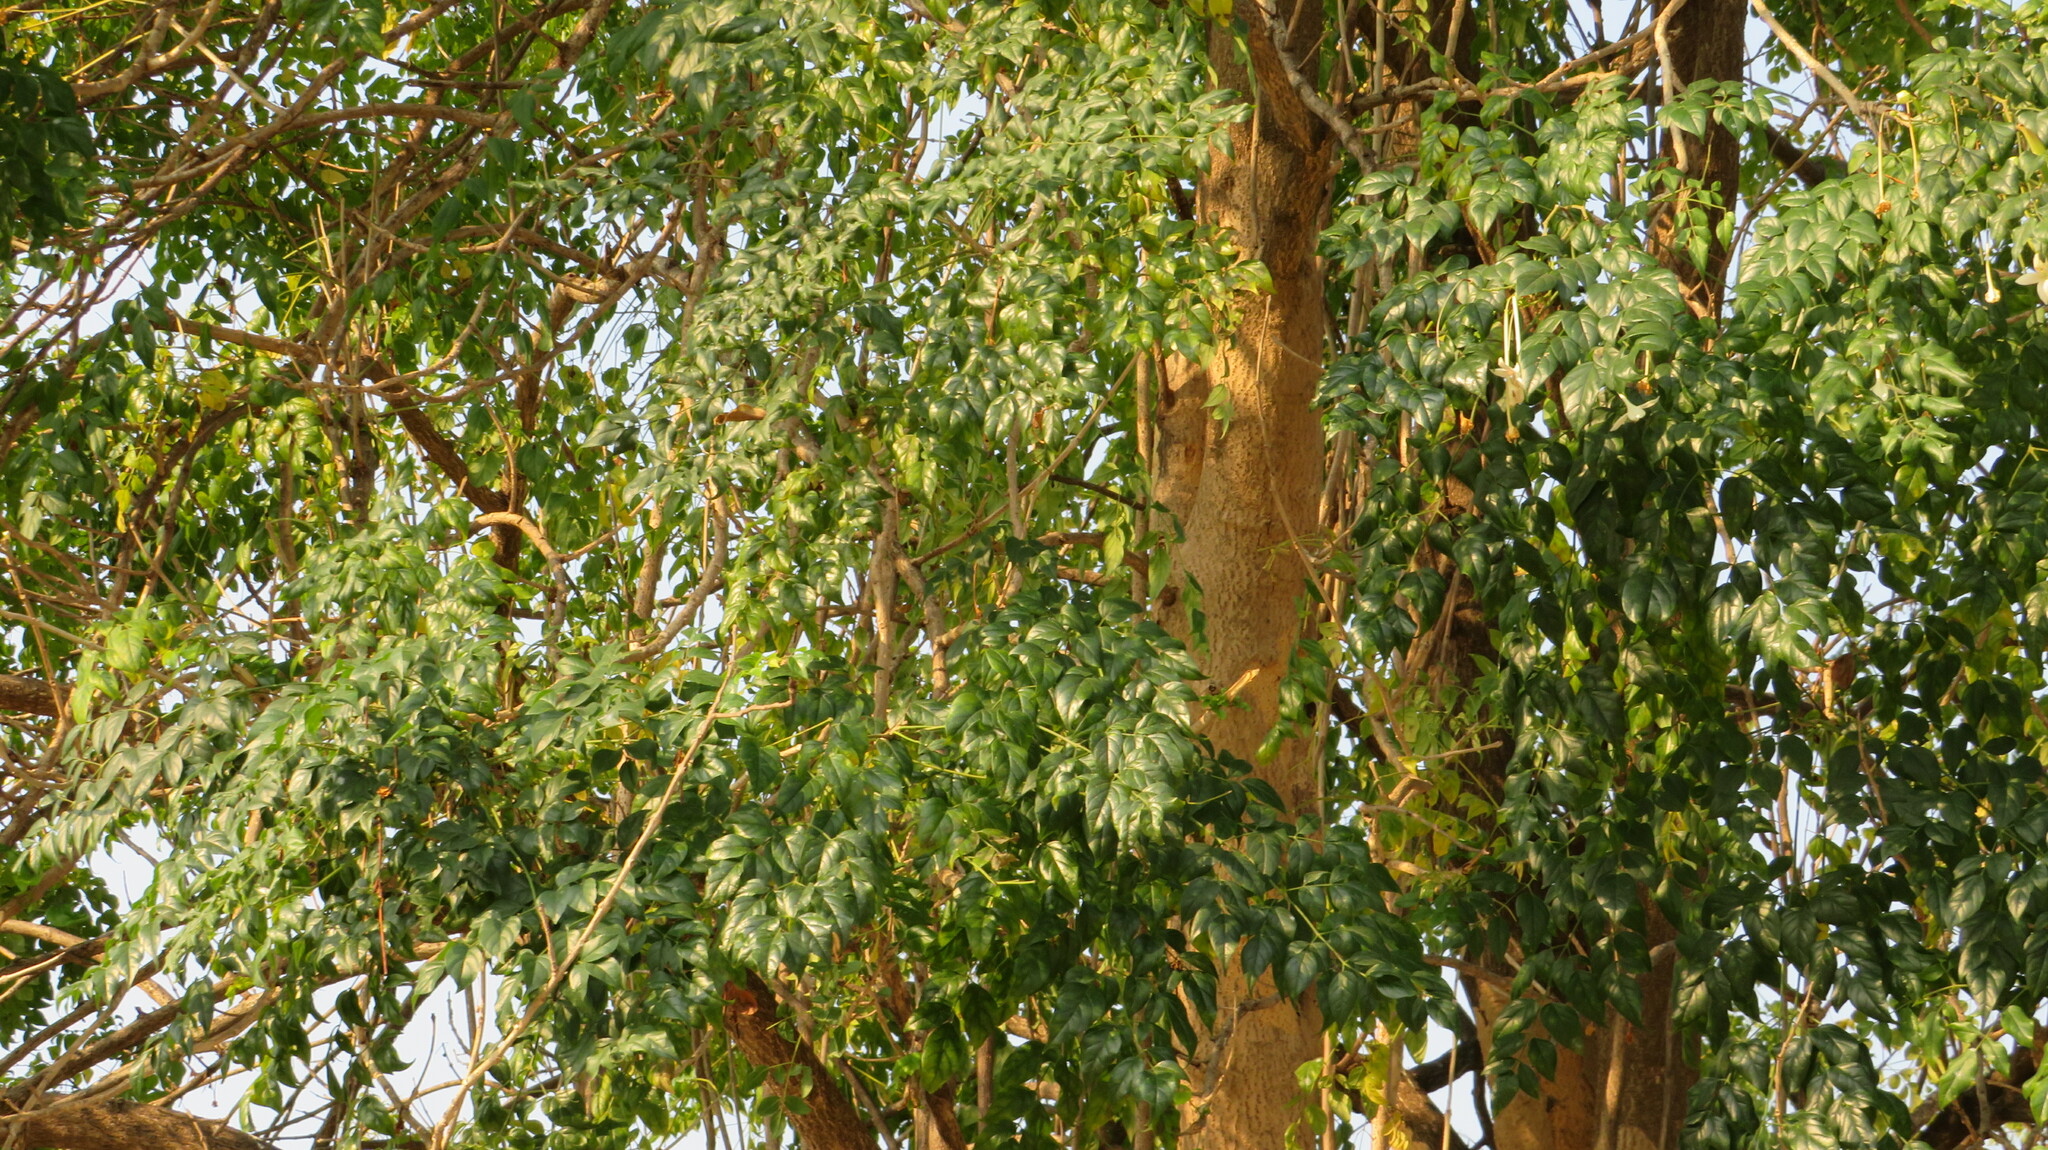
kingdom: Plantae
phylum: Tracheophyta
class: Magnoliopsida
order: Lamiales
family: Bignoniaceae
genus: Millingtonia
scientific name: Millingtonia hortensis
